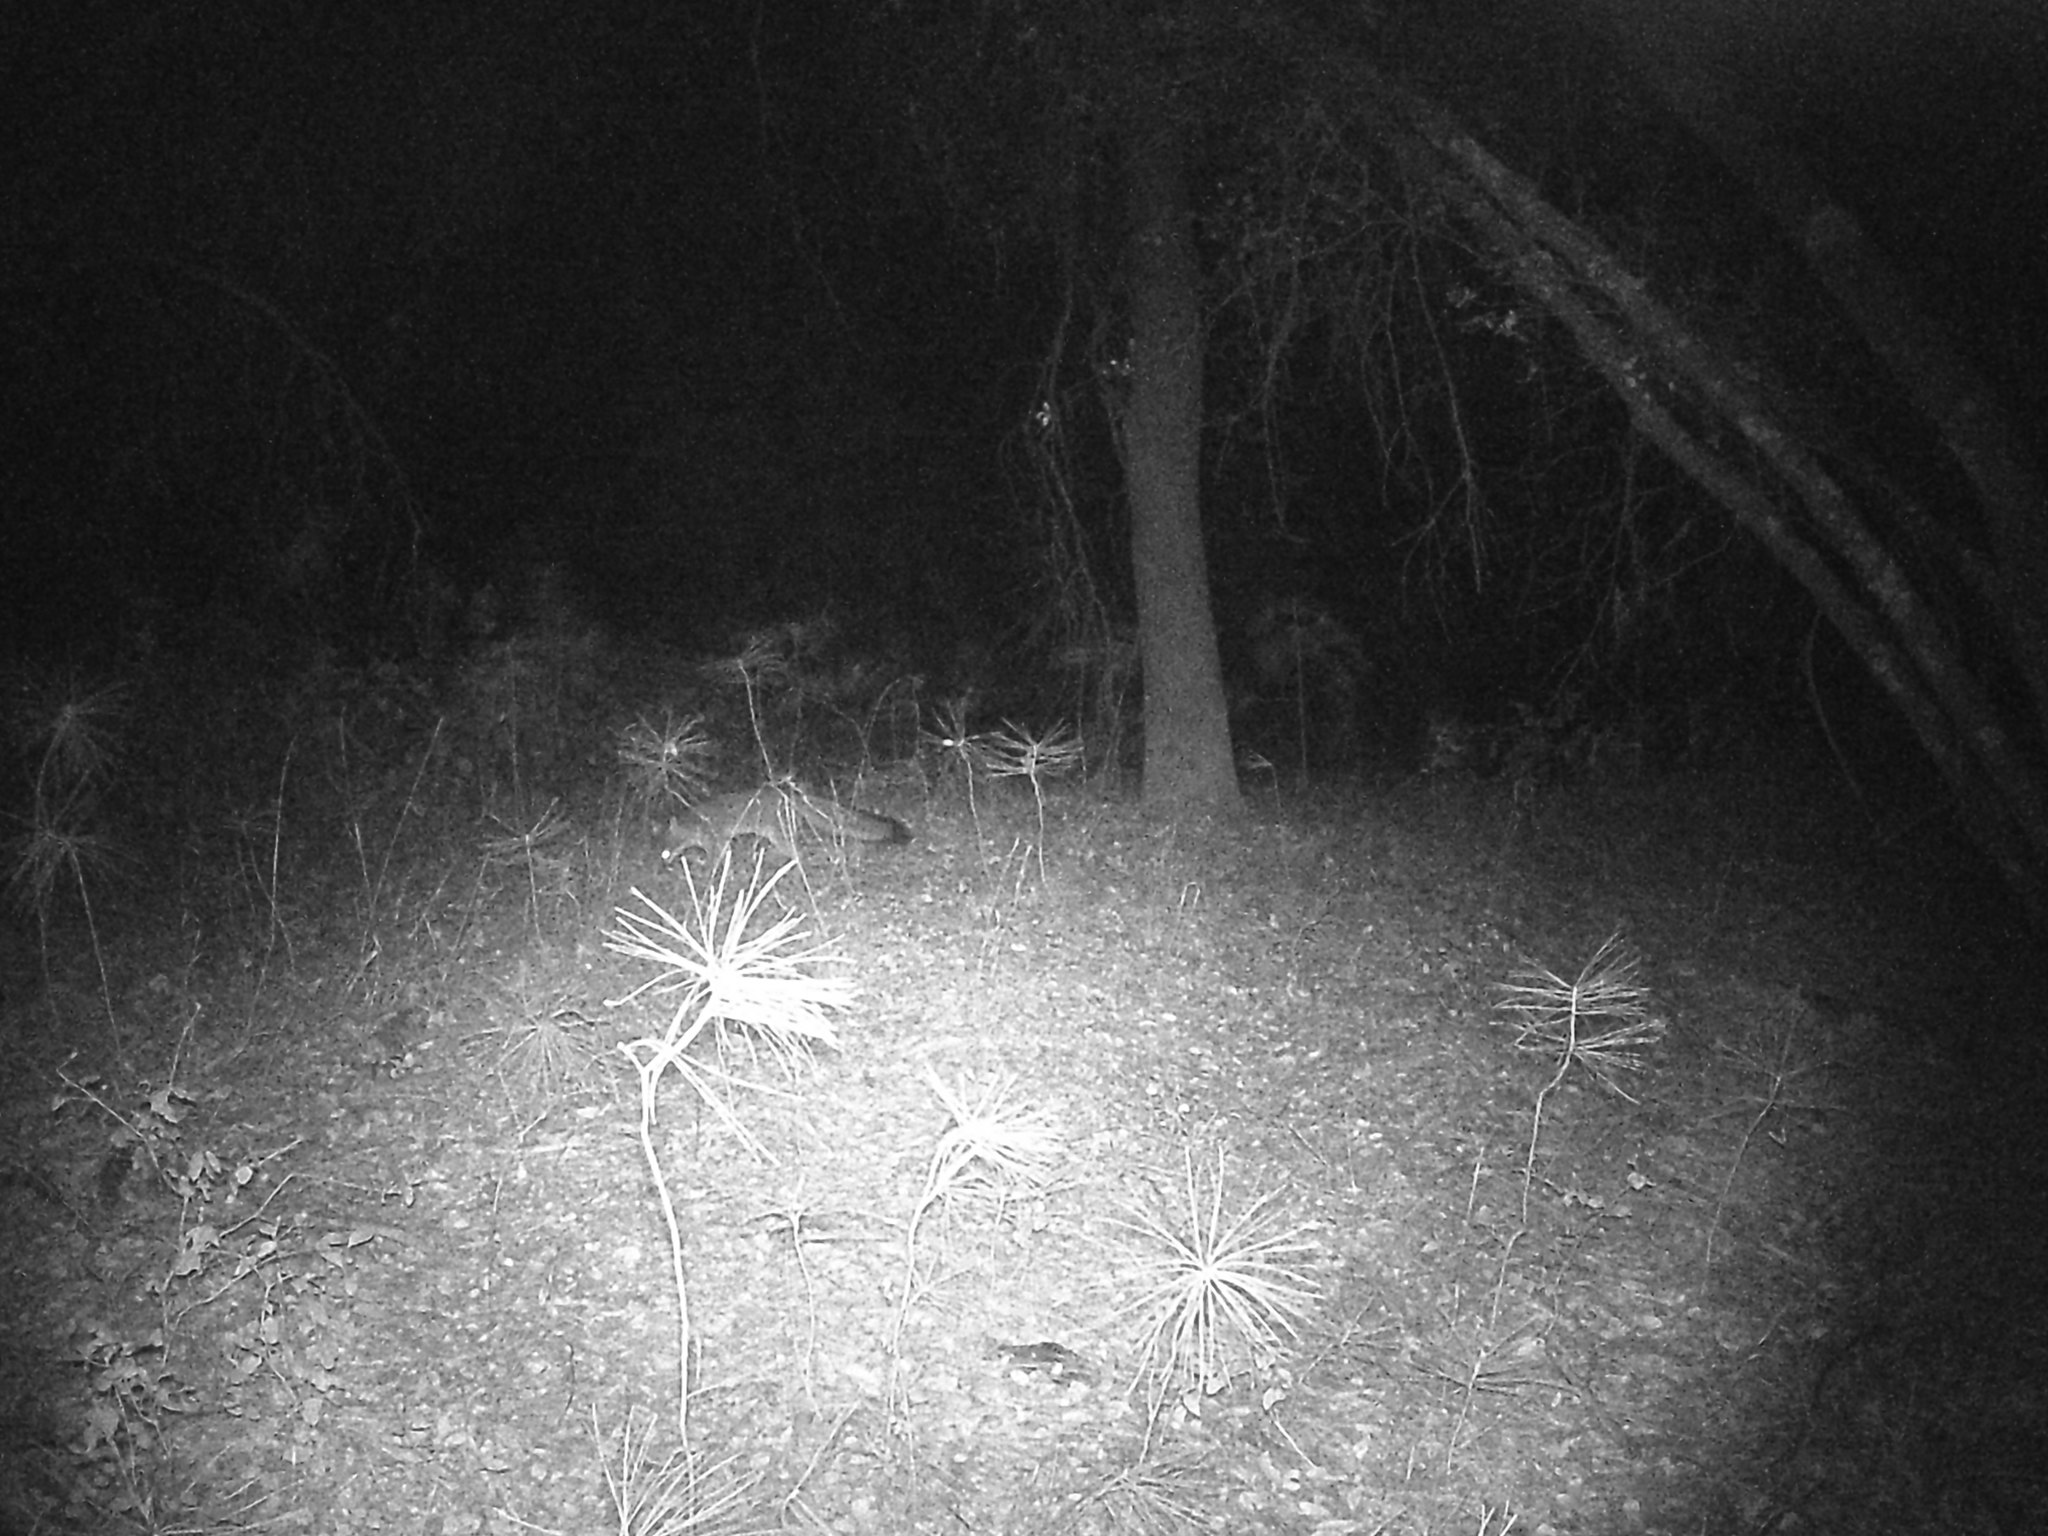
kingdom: Animalia
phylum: Chordata
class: Mammalia
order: Carnivora
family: Canidae
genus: Urocyon
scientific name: Urocyon cinereoargenteus
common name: Gray fox
